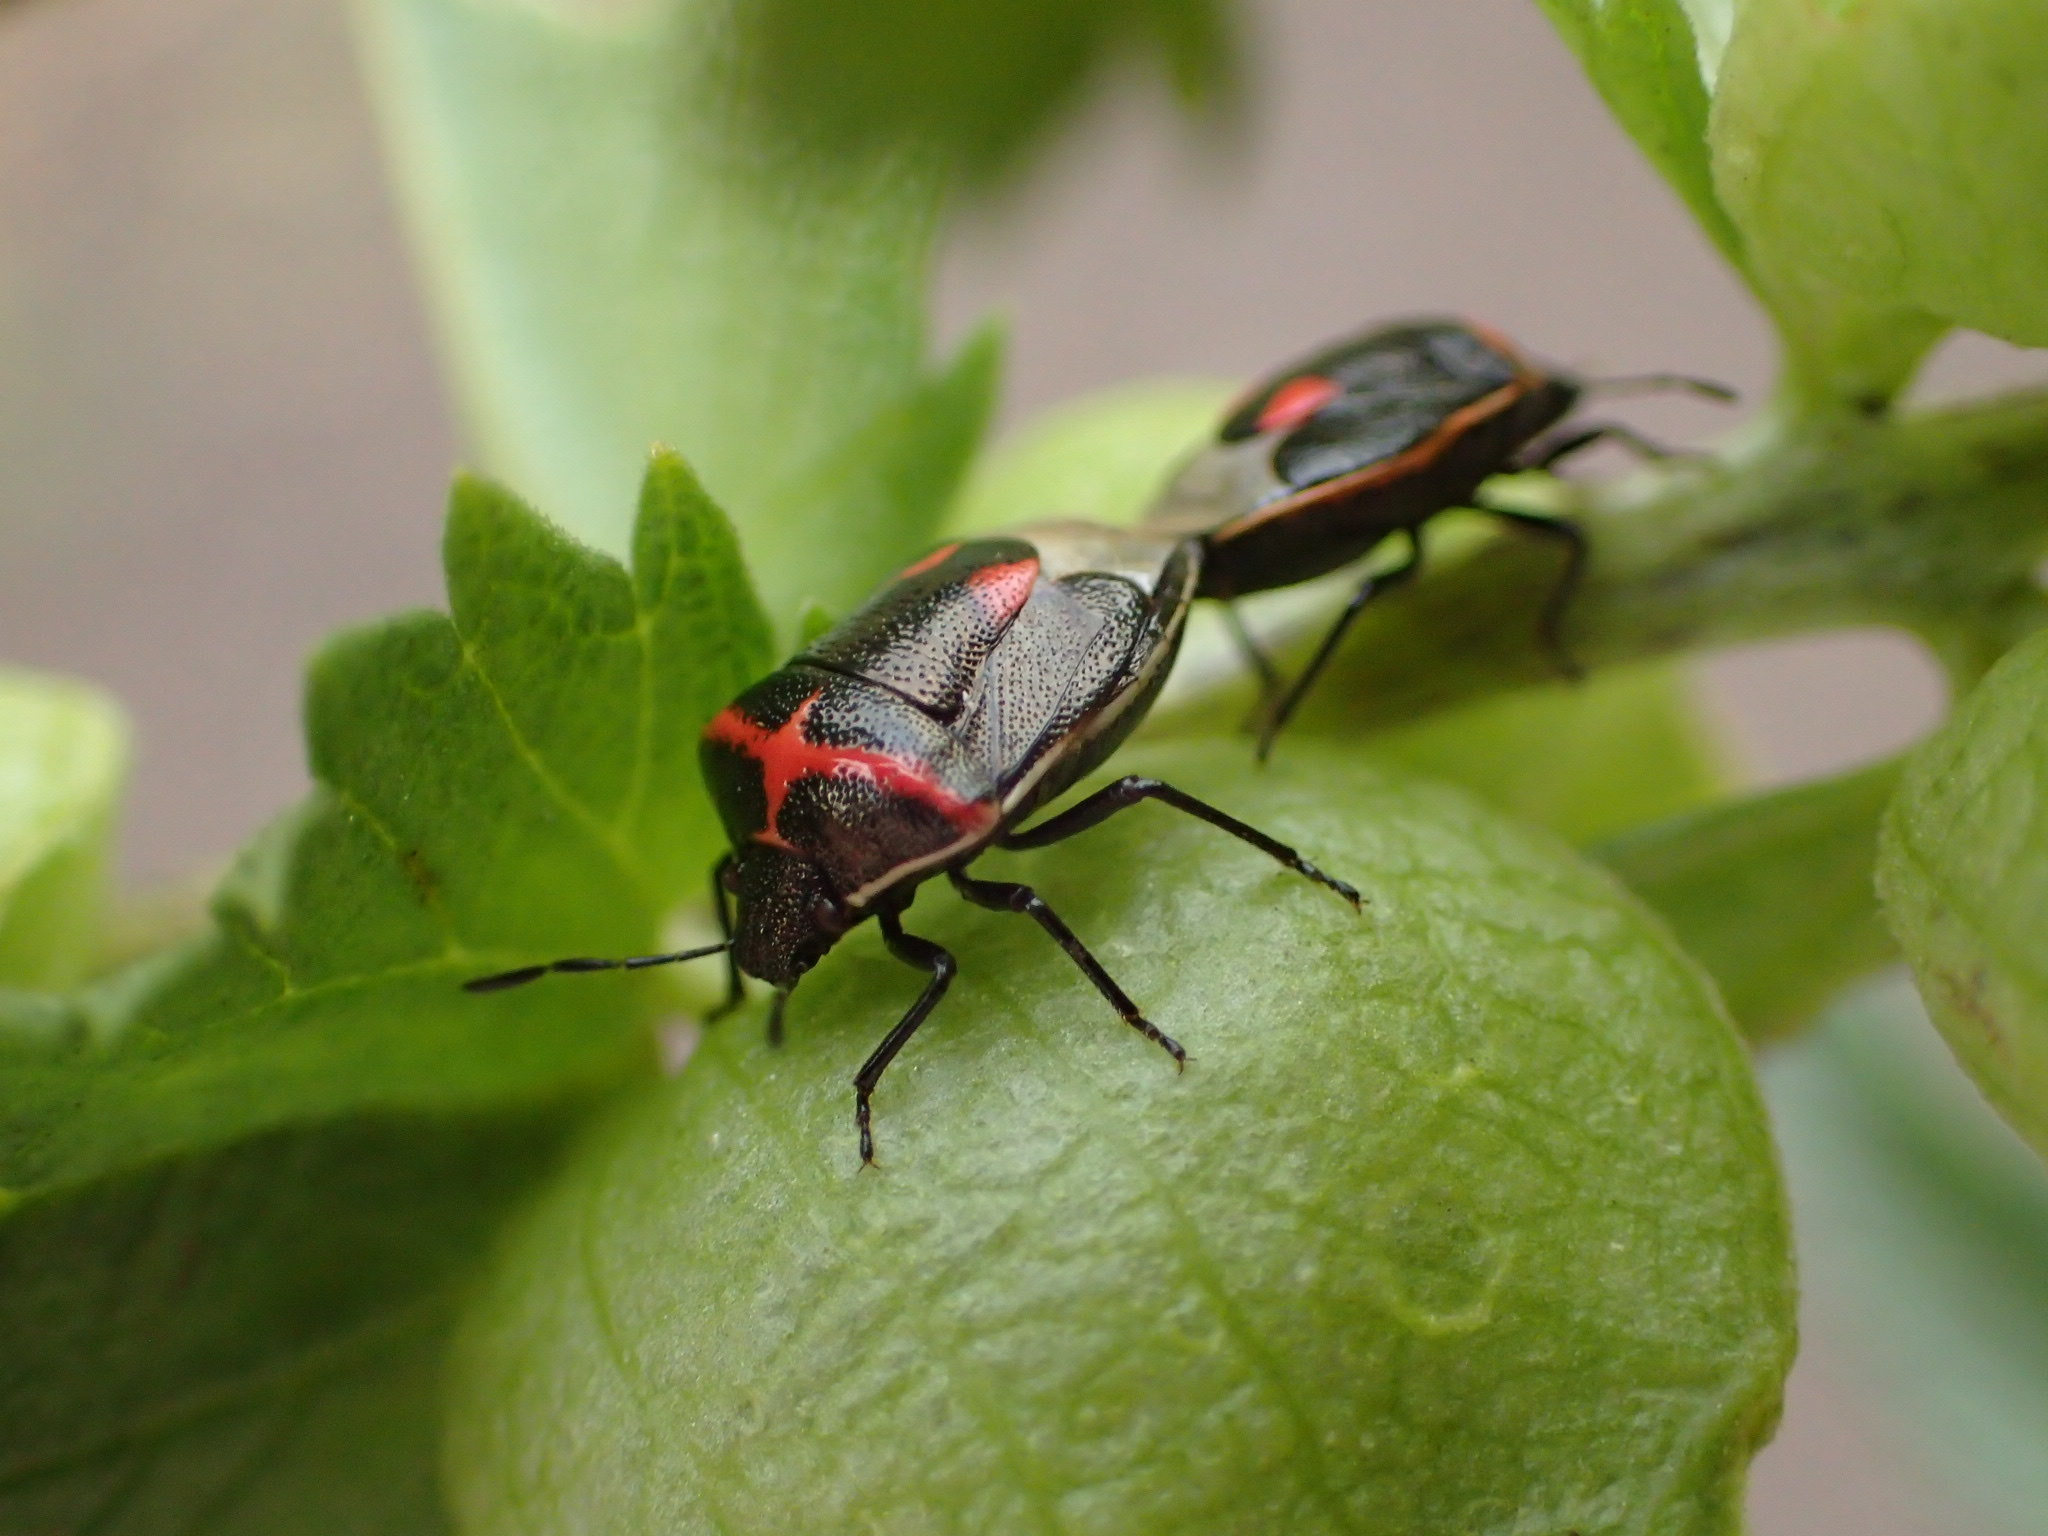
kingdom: Animalia
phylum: Arthropoda
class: Insecta
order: Hemiptera
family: Pentatomidae
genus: Cosmopepla
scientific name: Cosmopepla lintneriana
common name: Twice-stabbed stink bug
